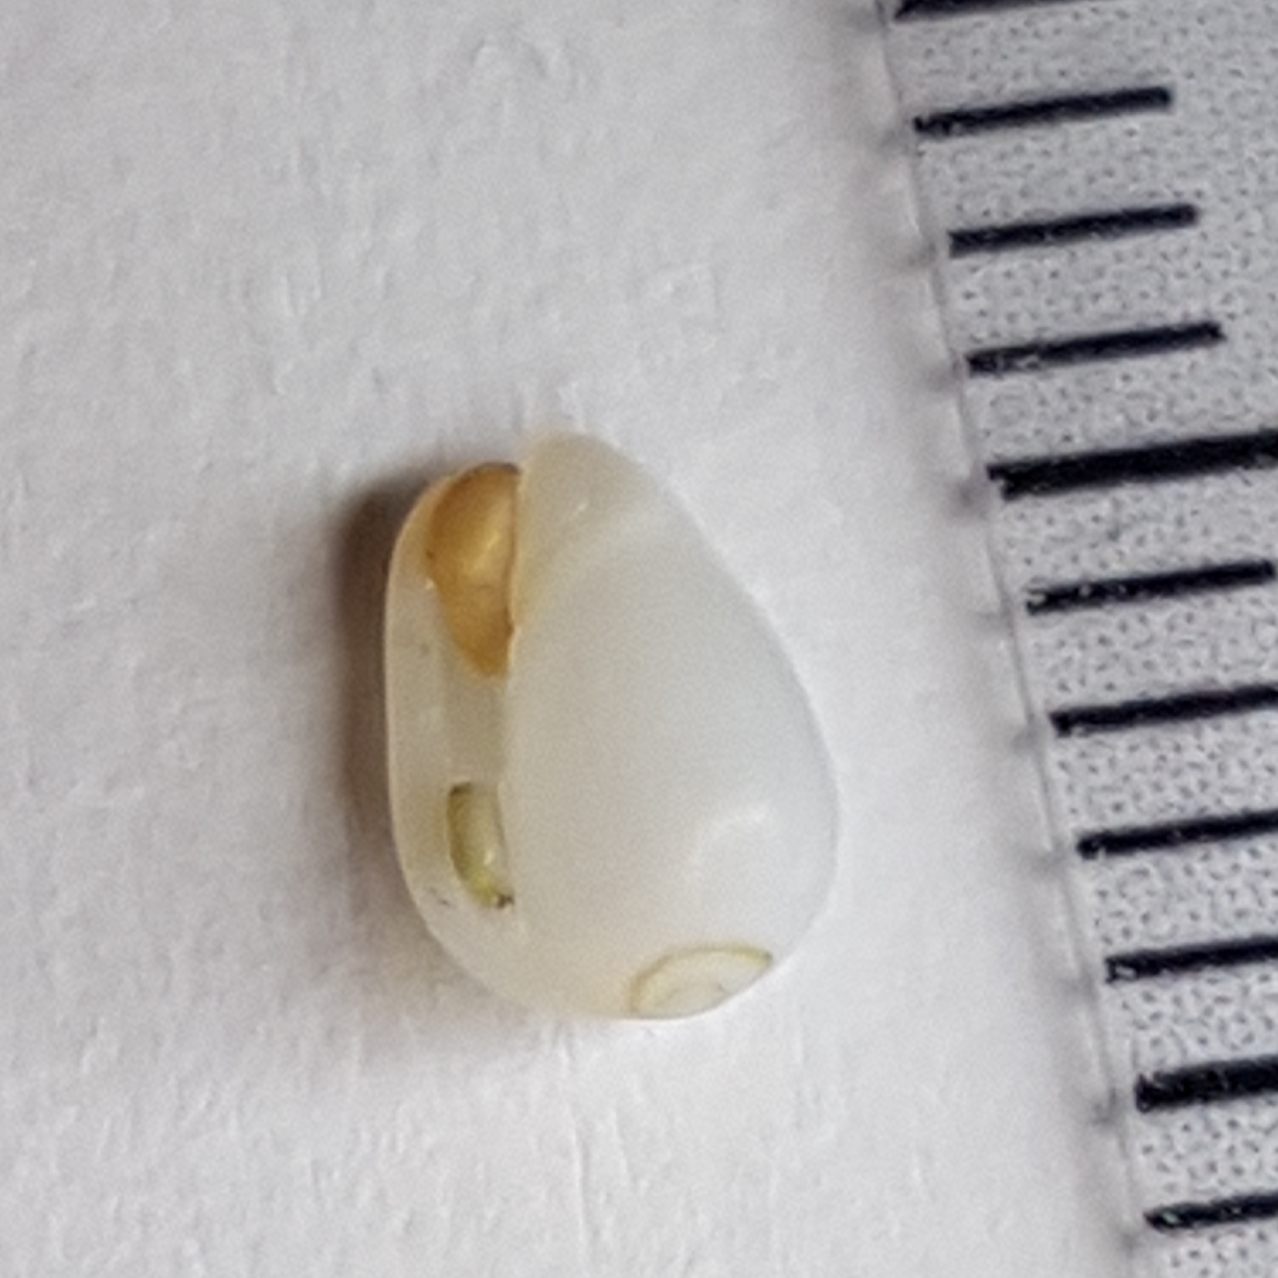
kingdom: Animalia
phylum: Mollusca
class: Gastropoda
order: Neogastropoda
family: Cystiscidae
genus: Gibberula
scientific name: Gibberula miliaria
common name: Millet topsnail
